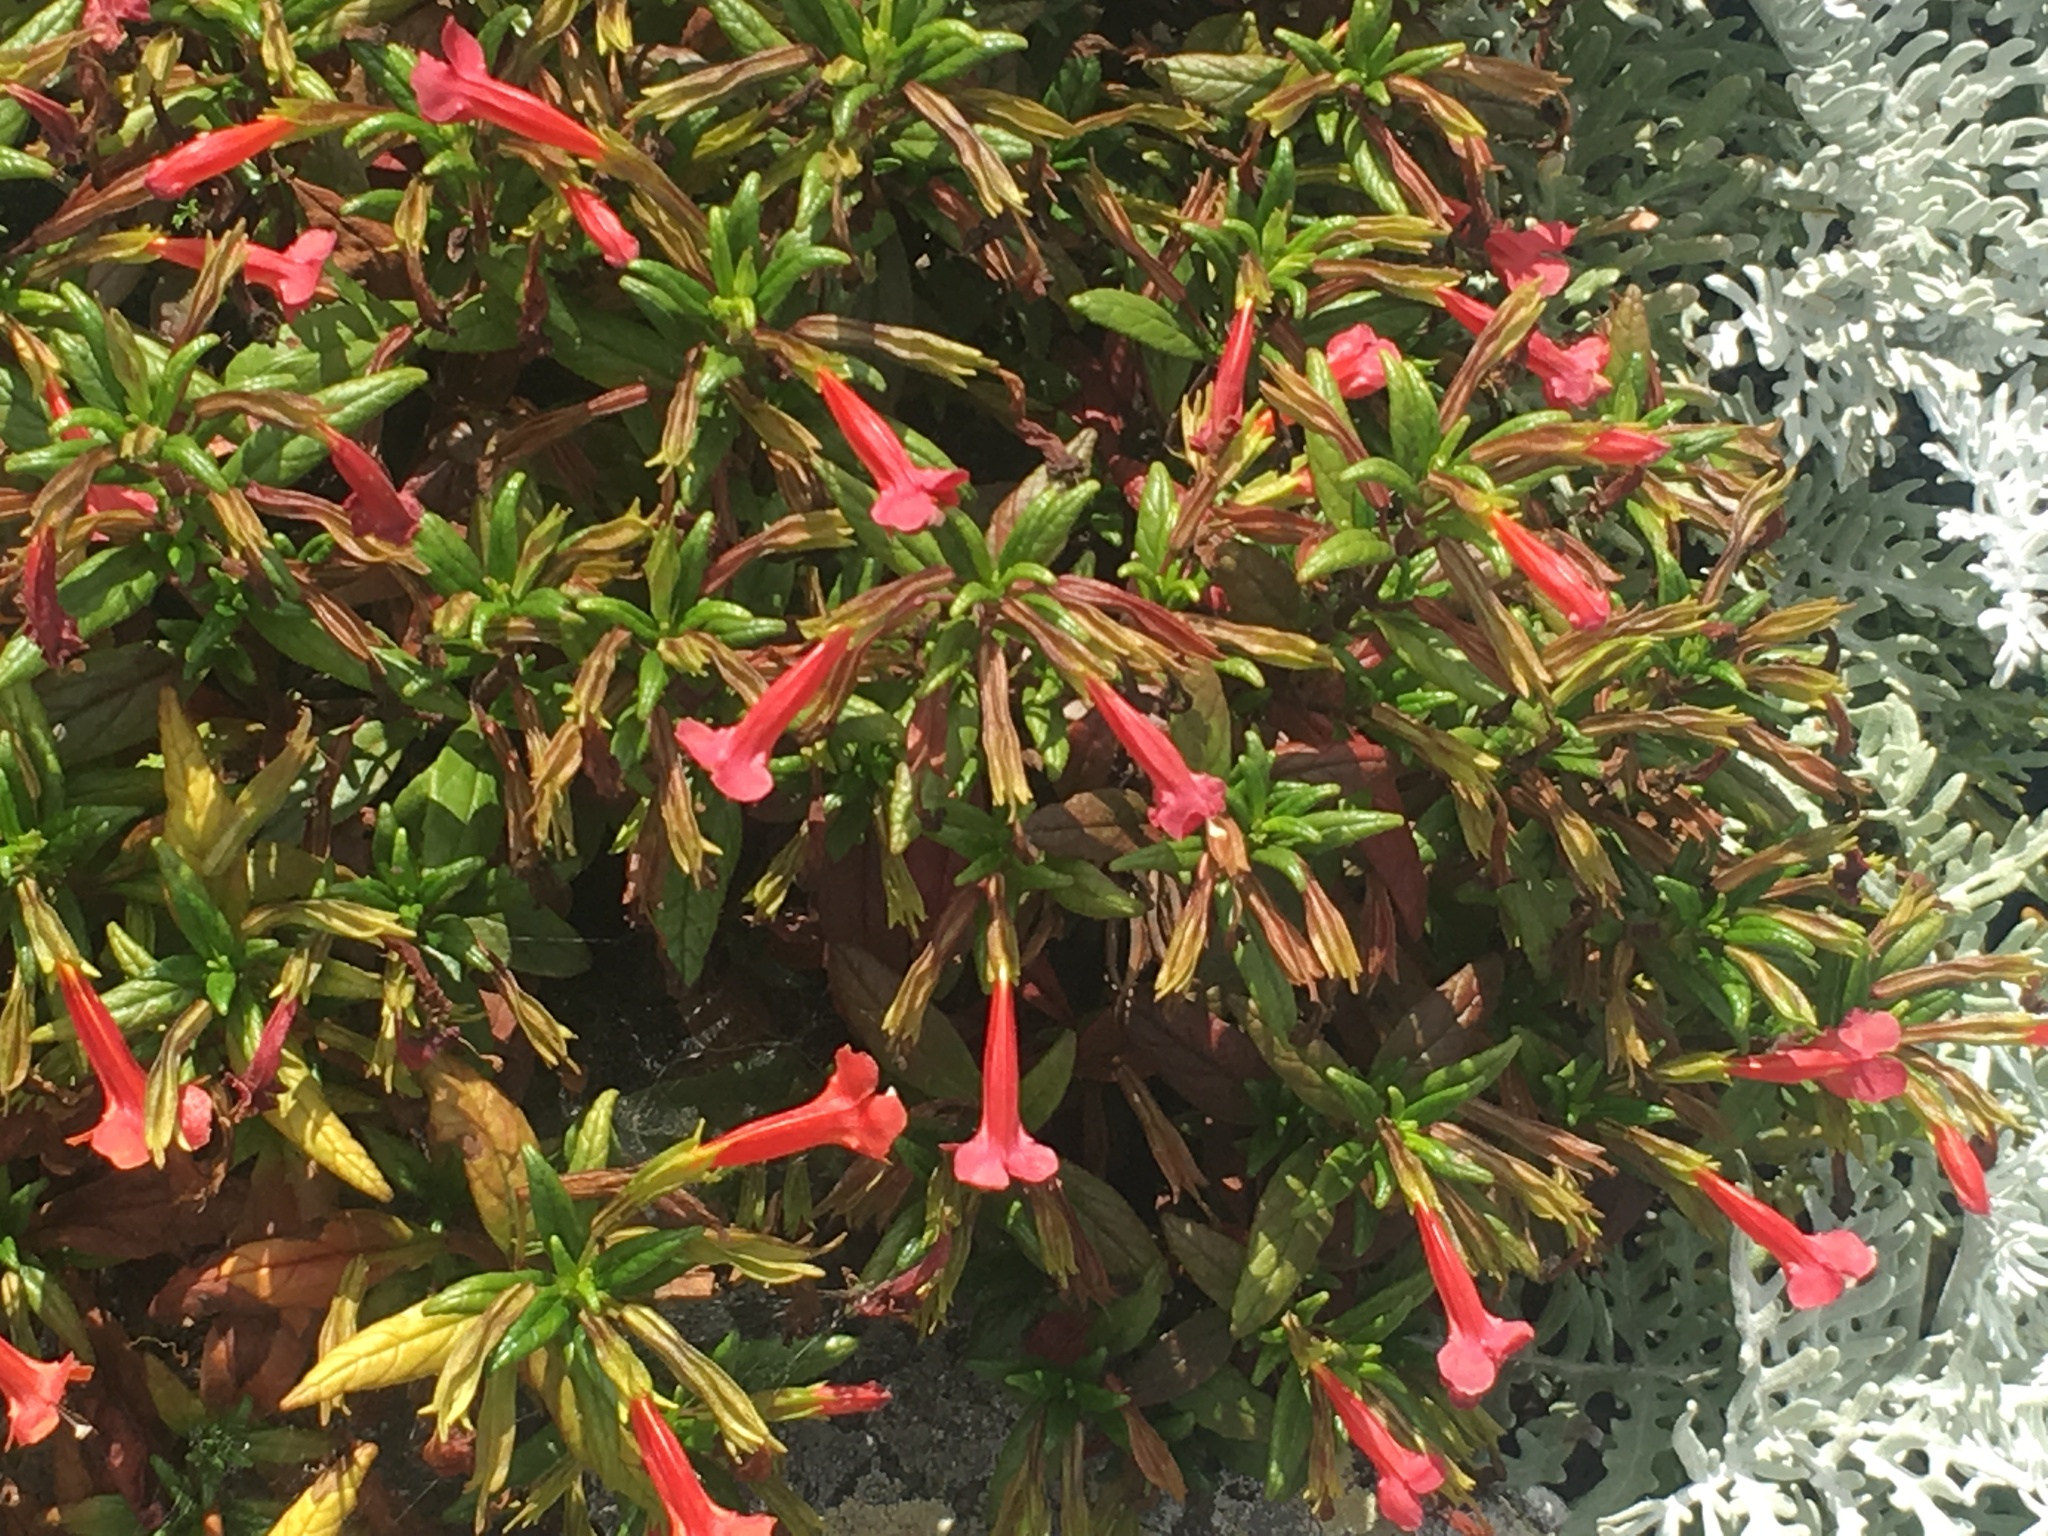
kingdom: Plantae
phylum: Tracheophyta
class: Magnoliopsida
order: Lamiales
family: Phrymaceae
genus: Diplacus
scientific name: Diplacus parviflorus
